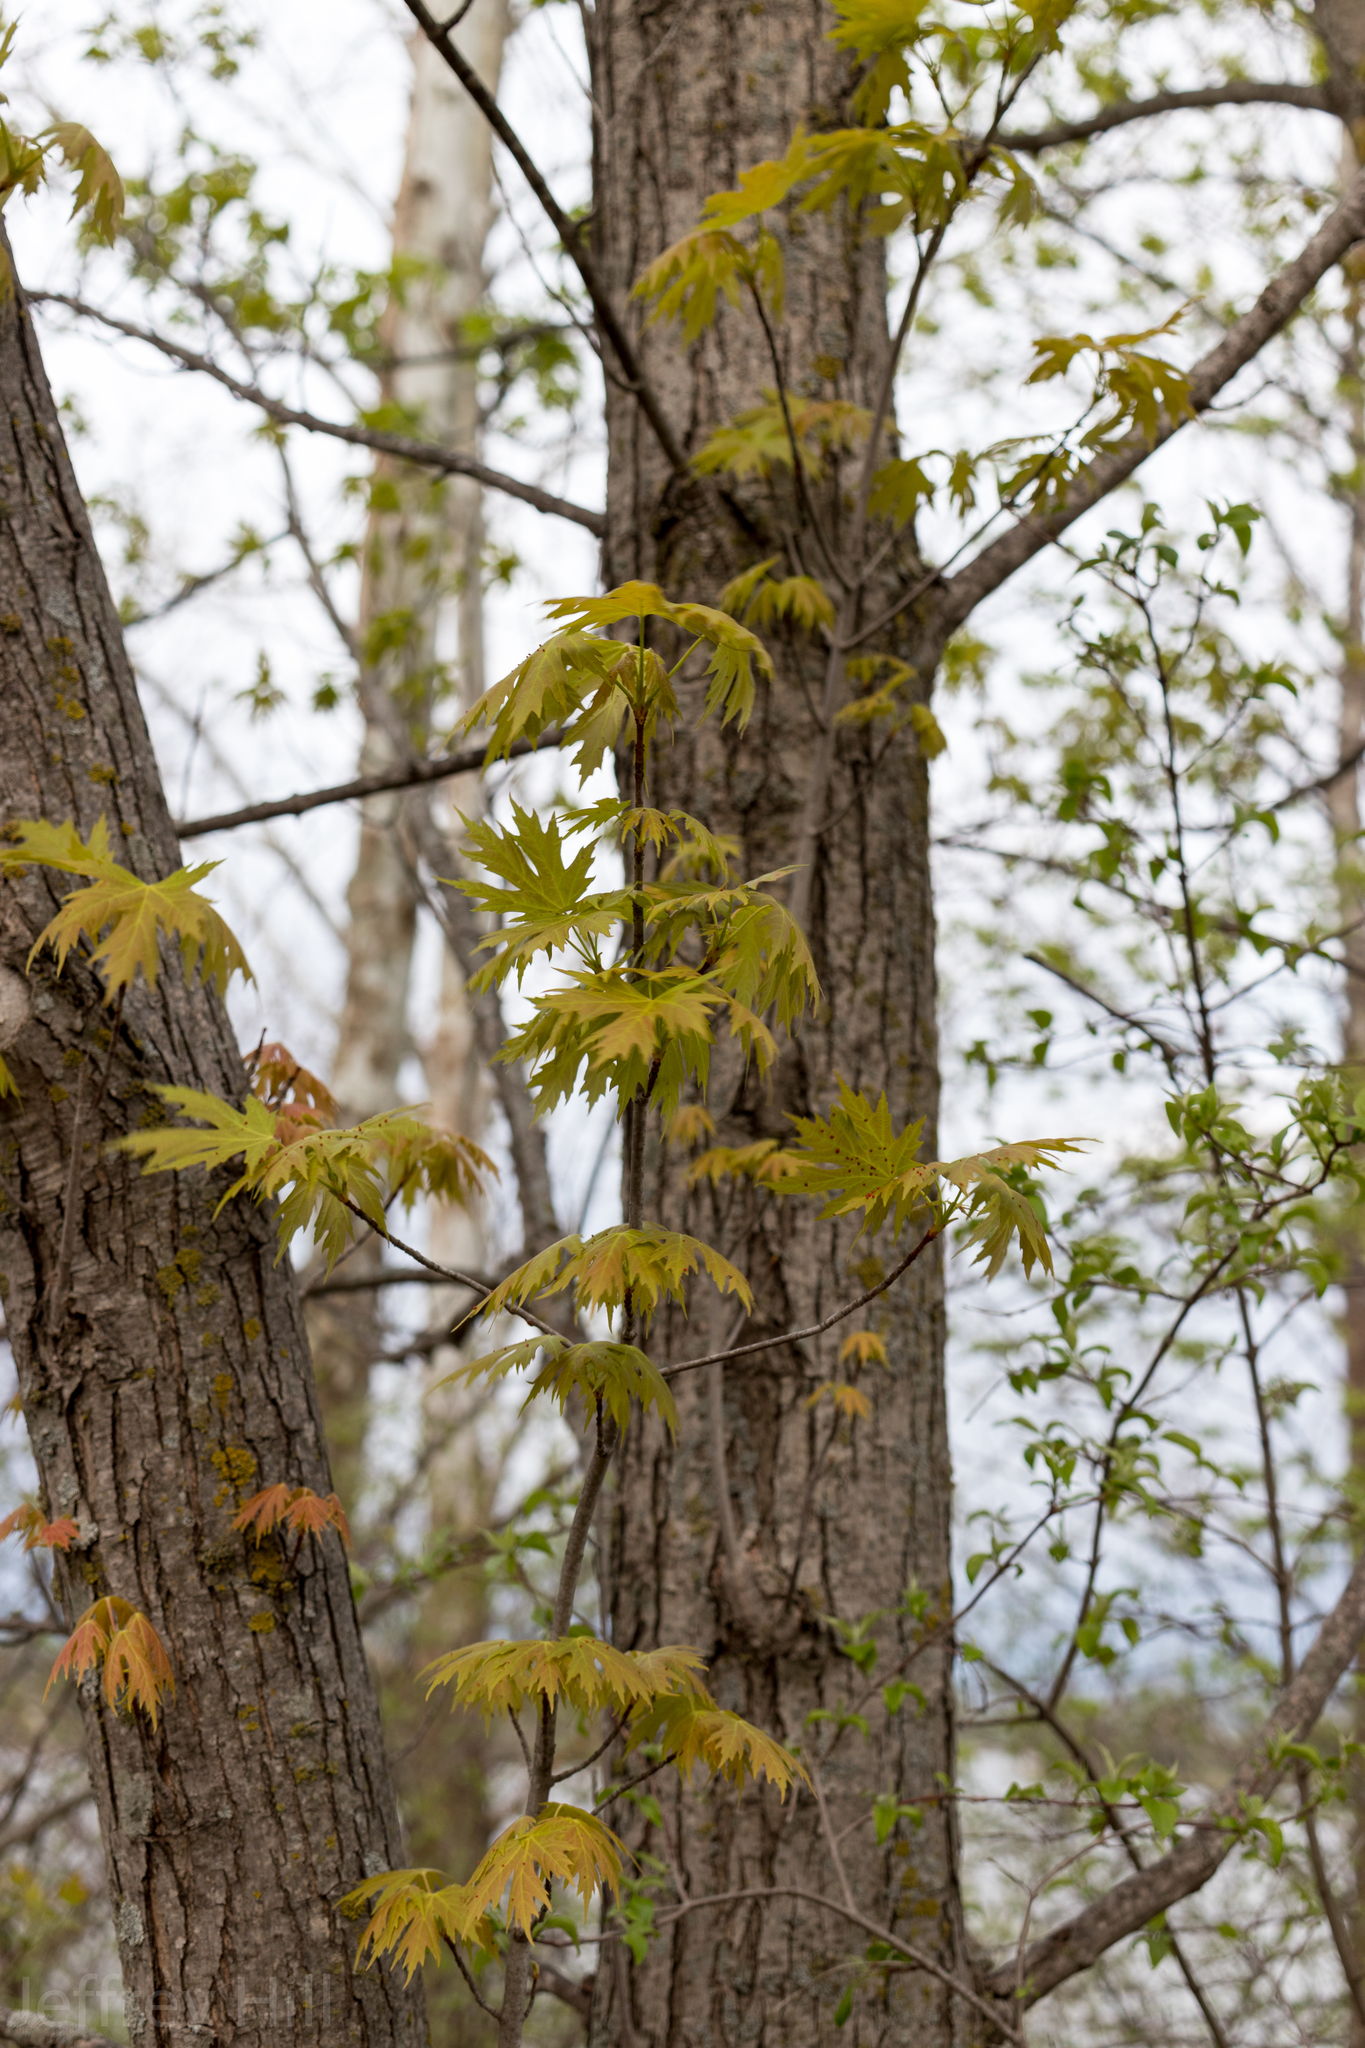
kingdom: Plantae
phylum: Tracheophyta
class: Magnoliopsida
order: Sapindales
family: Sapindaceae
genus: Acer
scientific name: Acer saccharinum
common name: Silver maple
